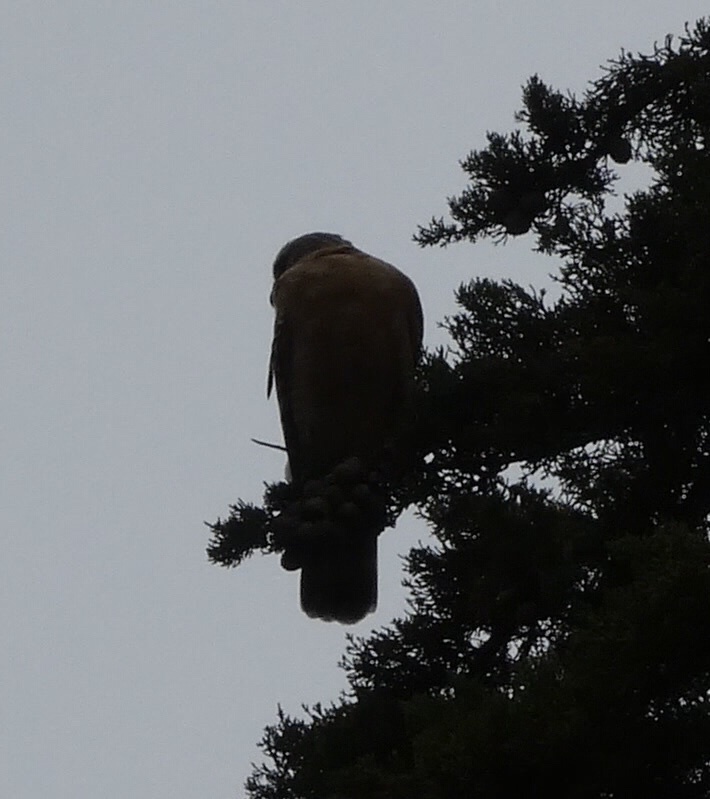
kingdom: Animalia
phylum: Chordata
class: Aves
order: Accipitriformes
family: Accipitridae
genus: Buteo
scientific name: Buteo lineatus
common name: Red-shouldered hawk
